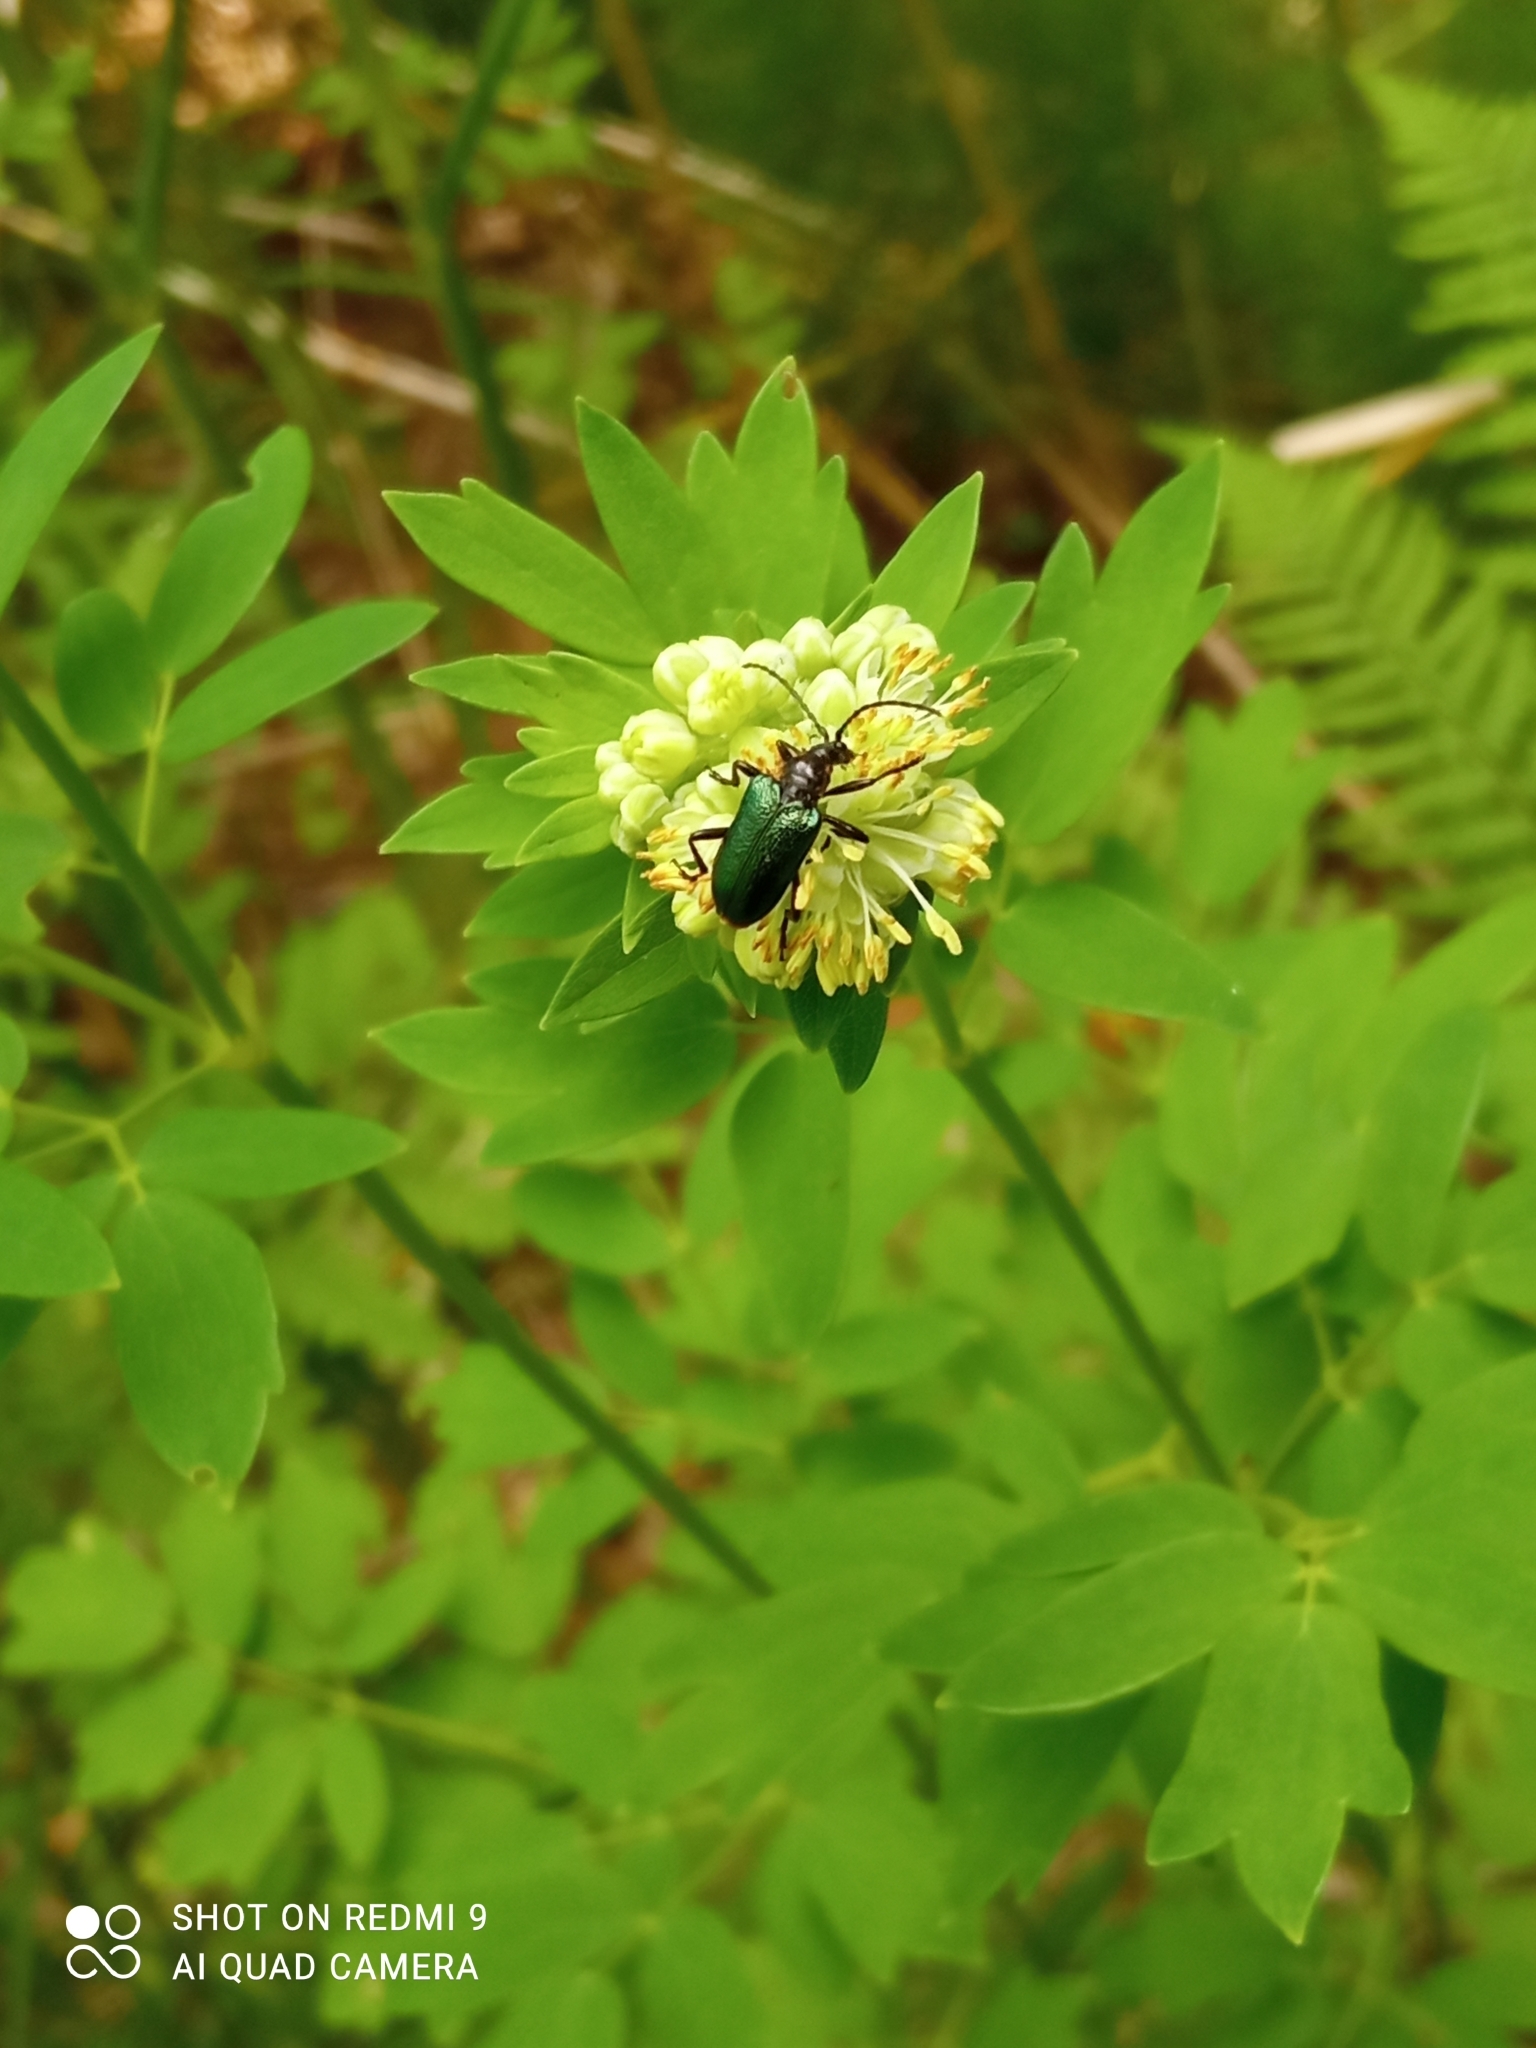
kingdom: Animalia
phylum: Arthropoda
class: Insecta
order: Coleoptera
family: Cerambycidae
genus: Gaurotes
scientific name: Gaurotes virginea
